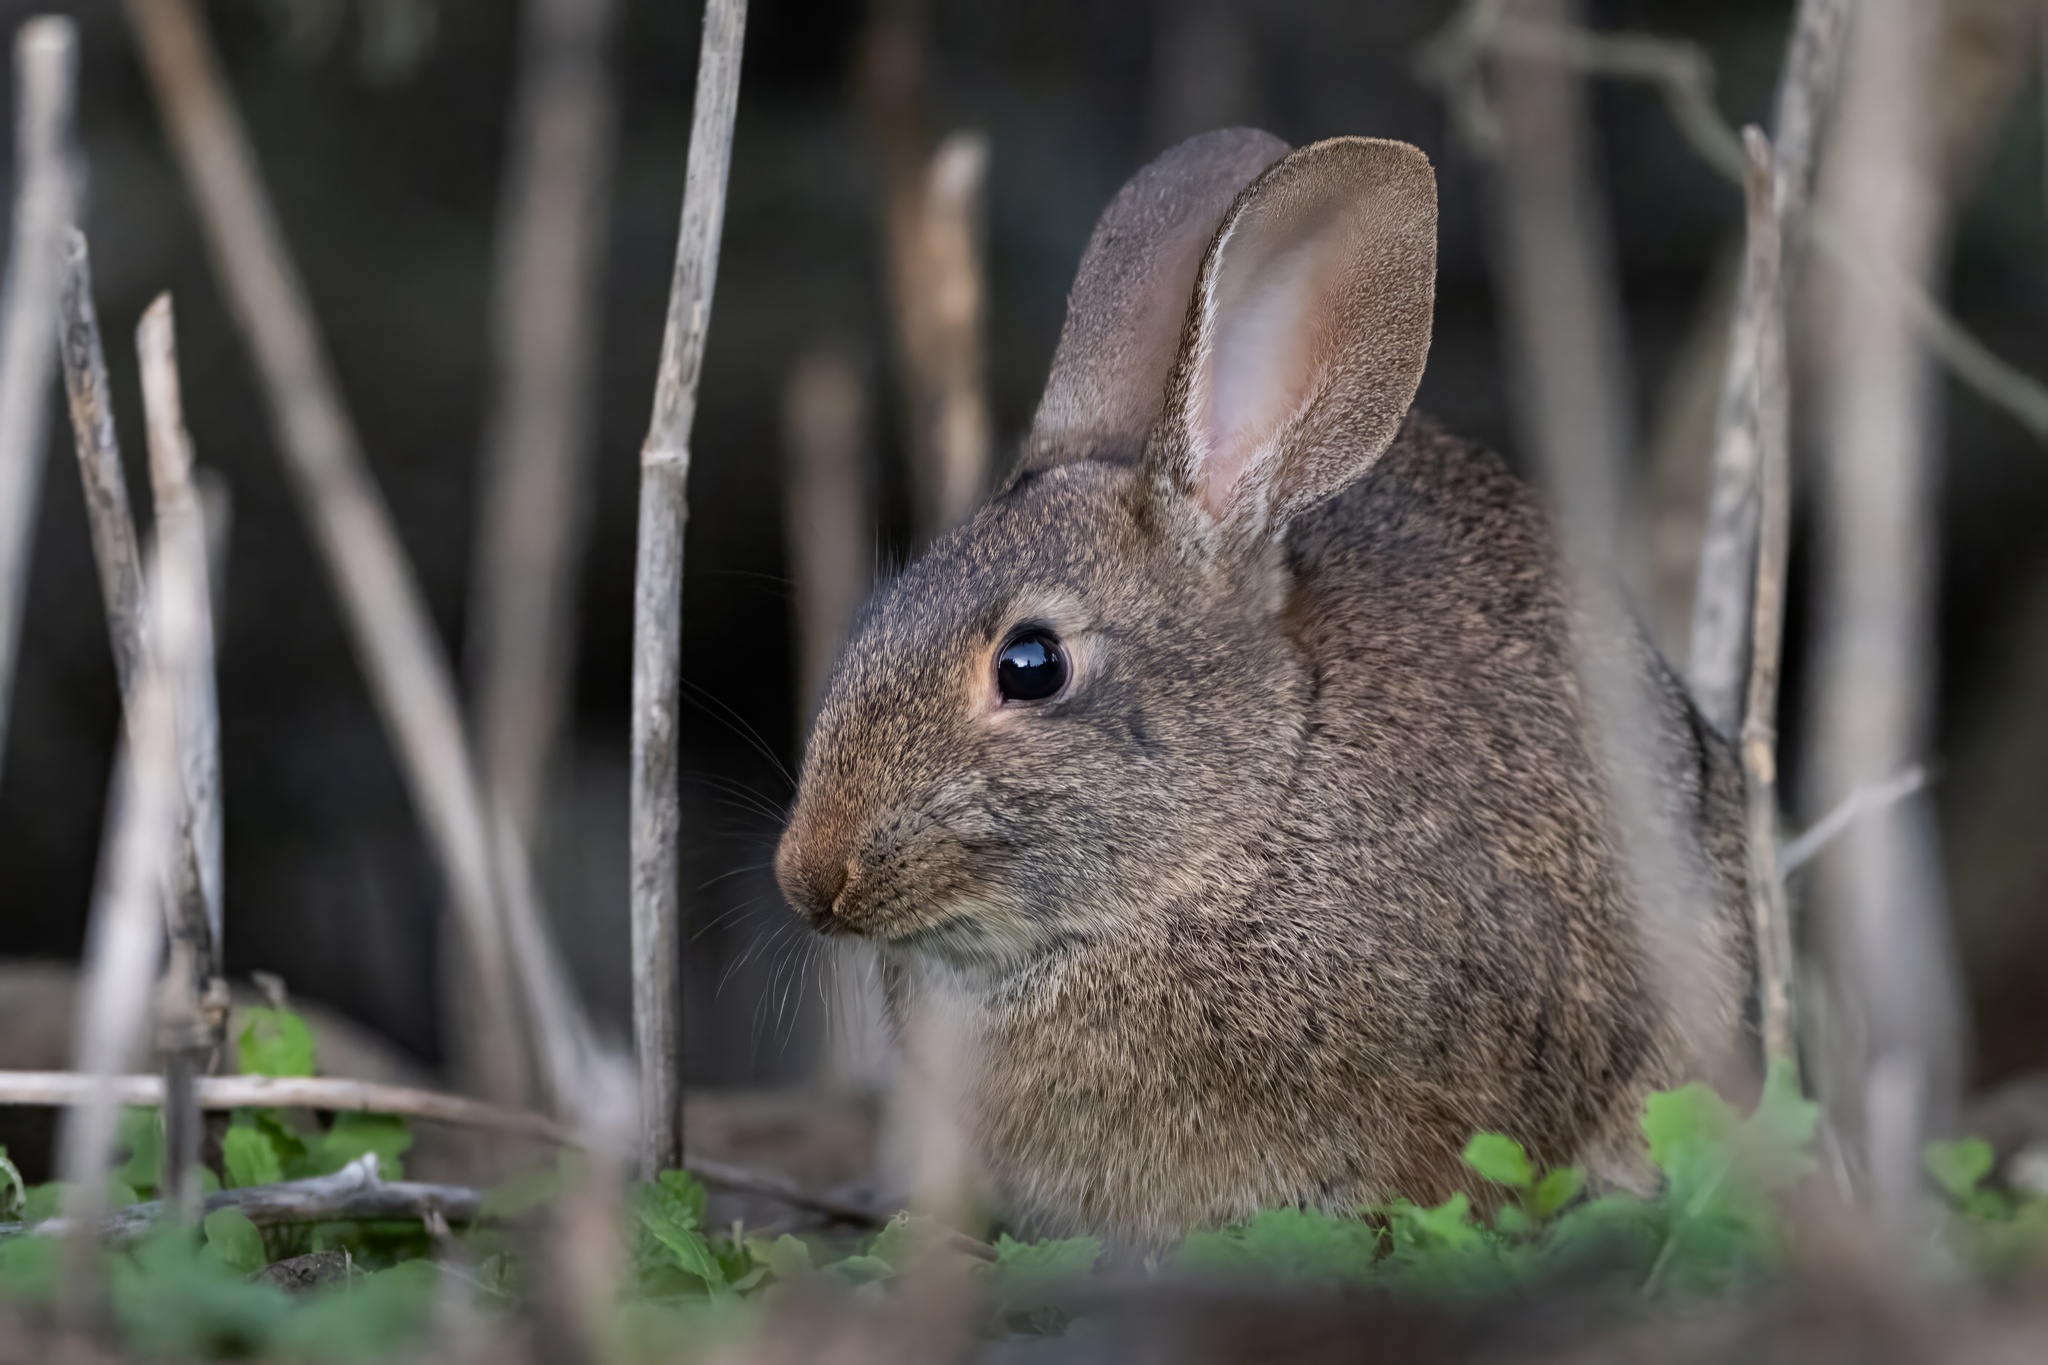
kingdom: Animalia
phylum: Chordata
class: Mammalia
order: Lagomorpha
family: Leporidae
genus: Sylvilagus
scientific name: Sylvilagus bachmani
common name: Brush rabbit
